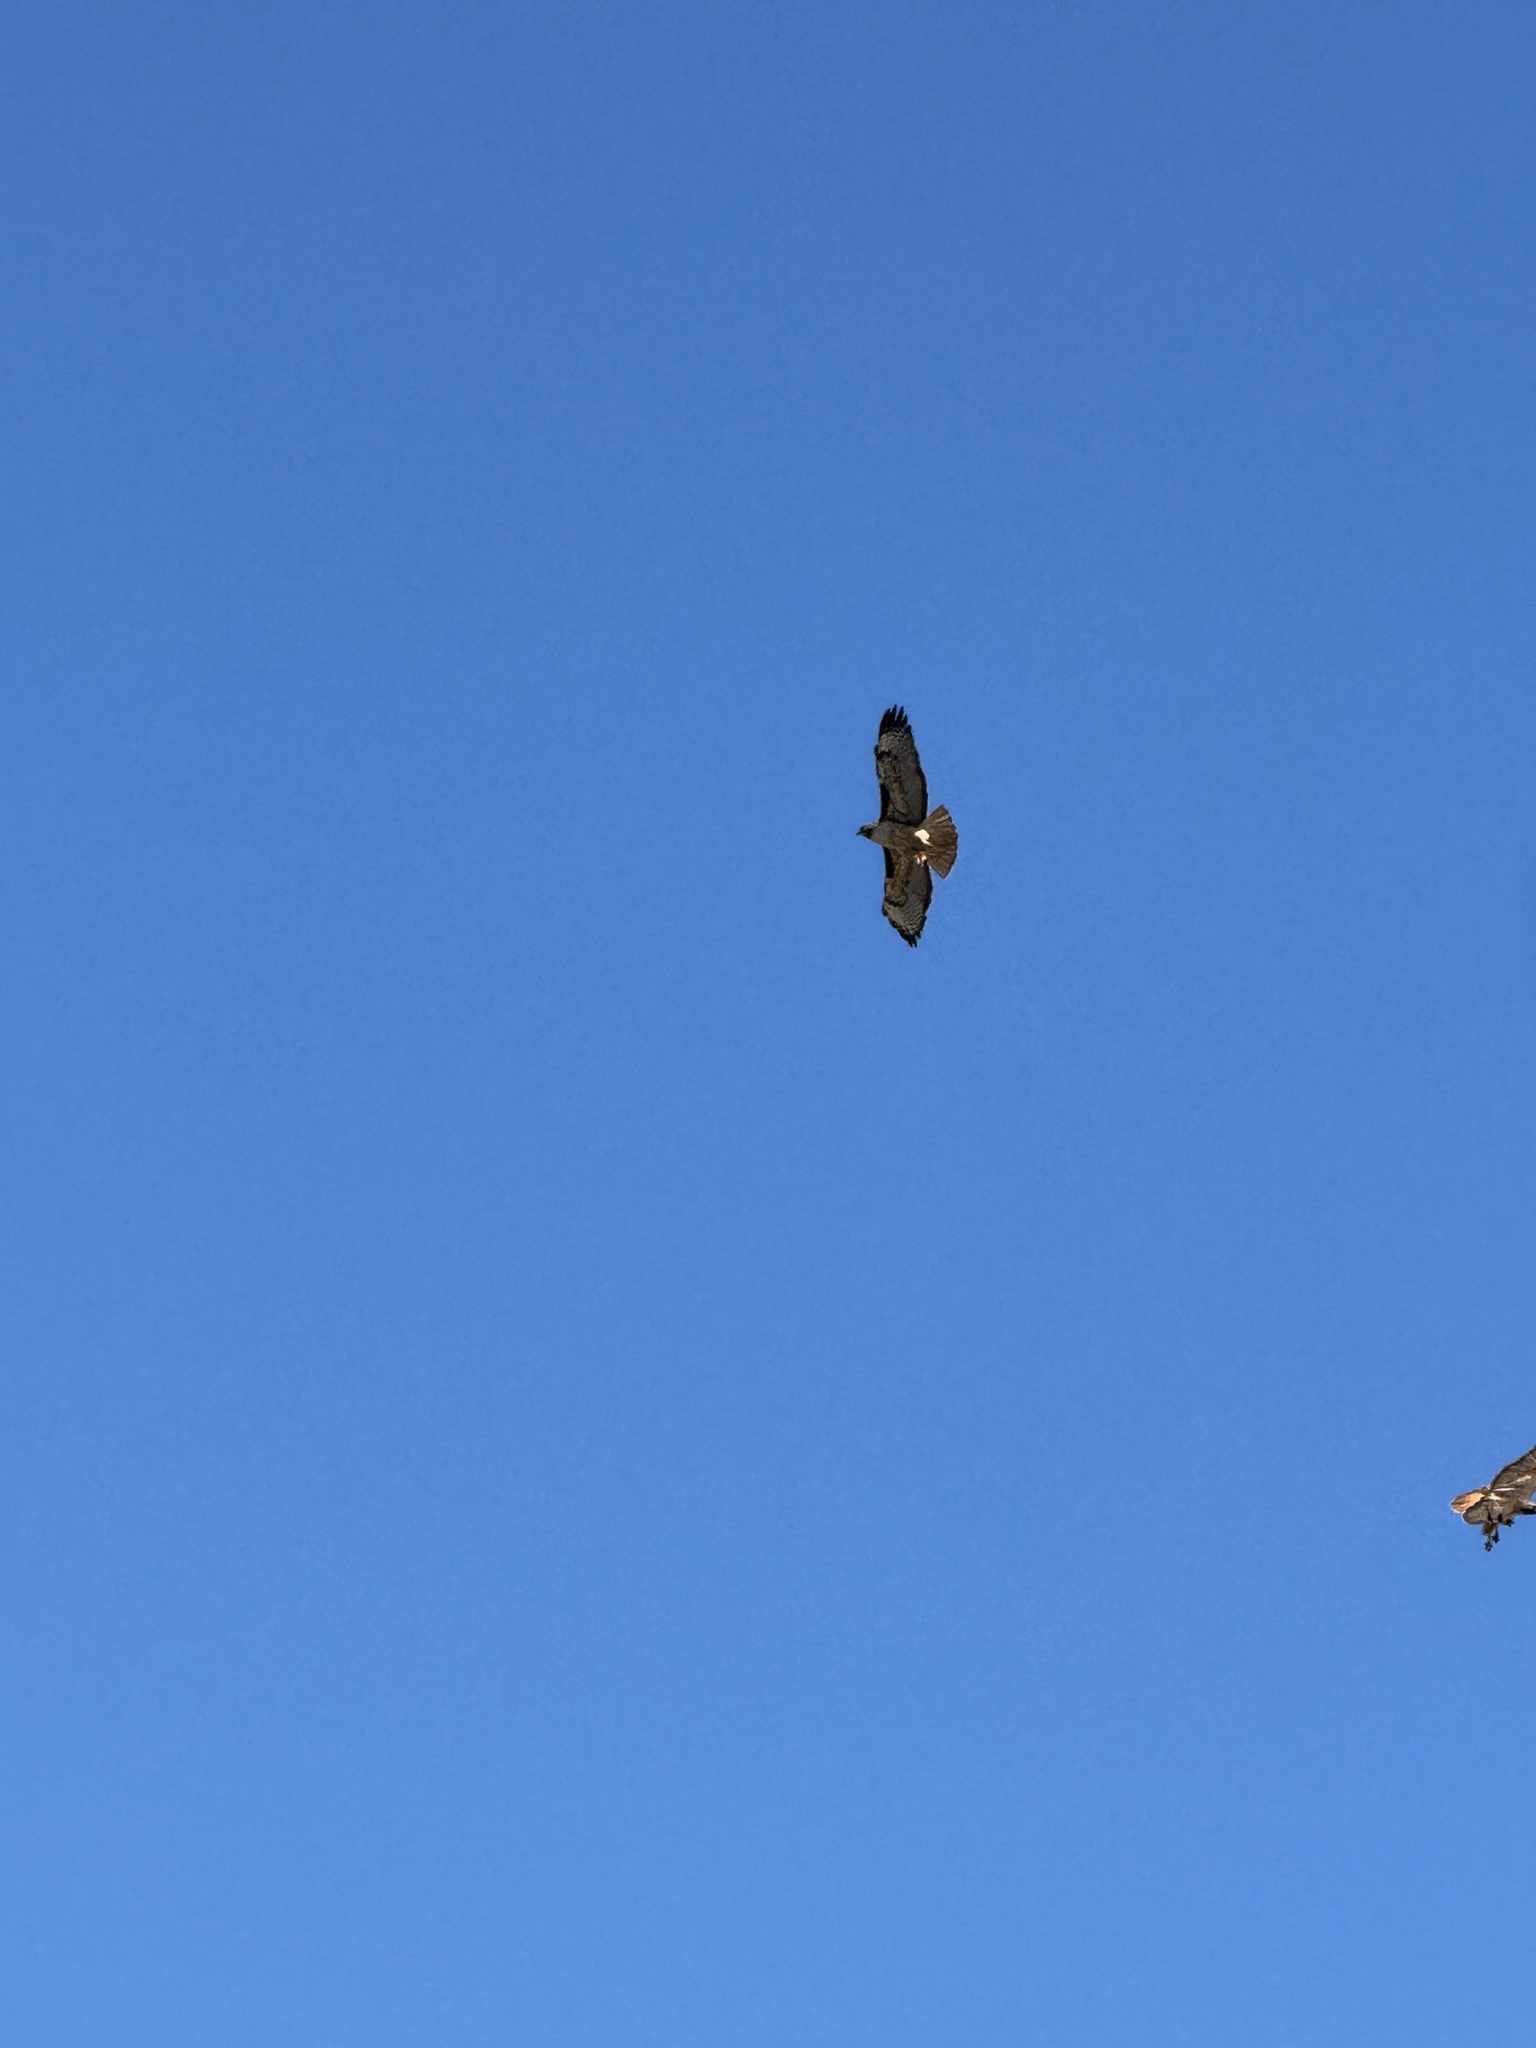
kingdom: Animalia
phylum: Chordata
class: Aves
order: Accipitriformes
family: Accipitridae
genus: Buteo
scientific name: Buteo jamaicensis
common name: Red-tailed hawk
